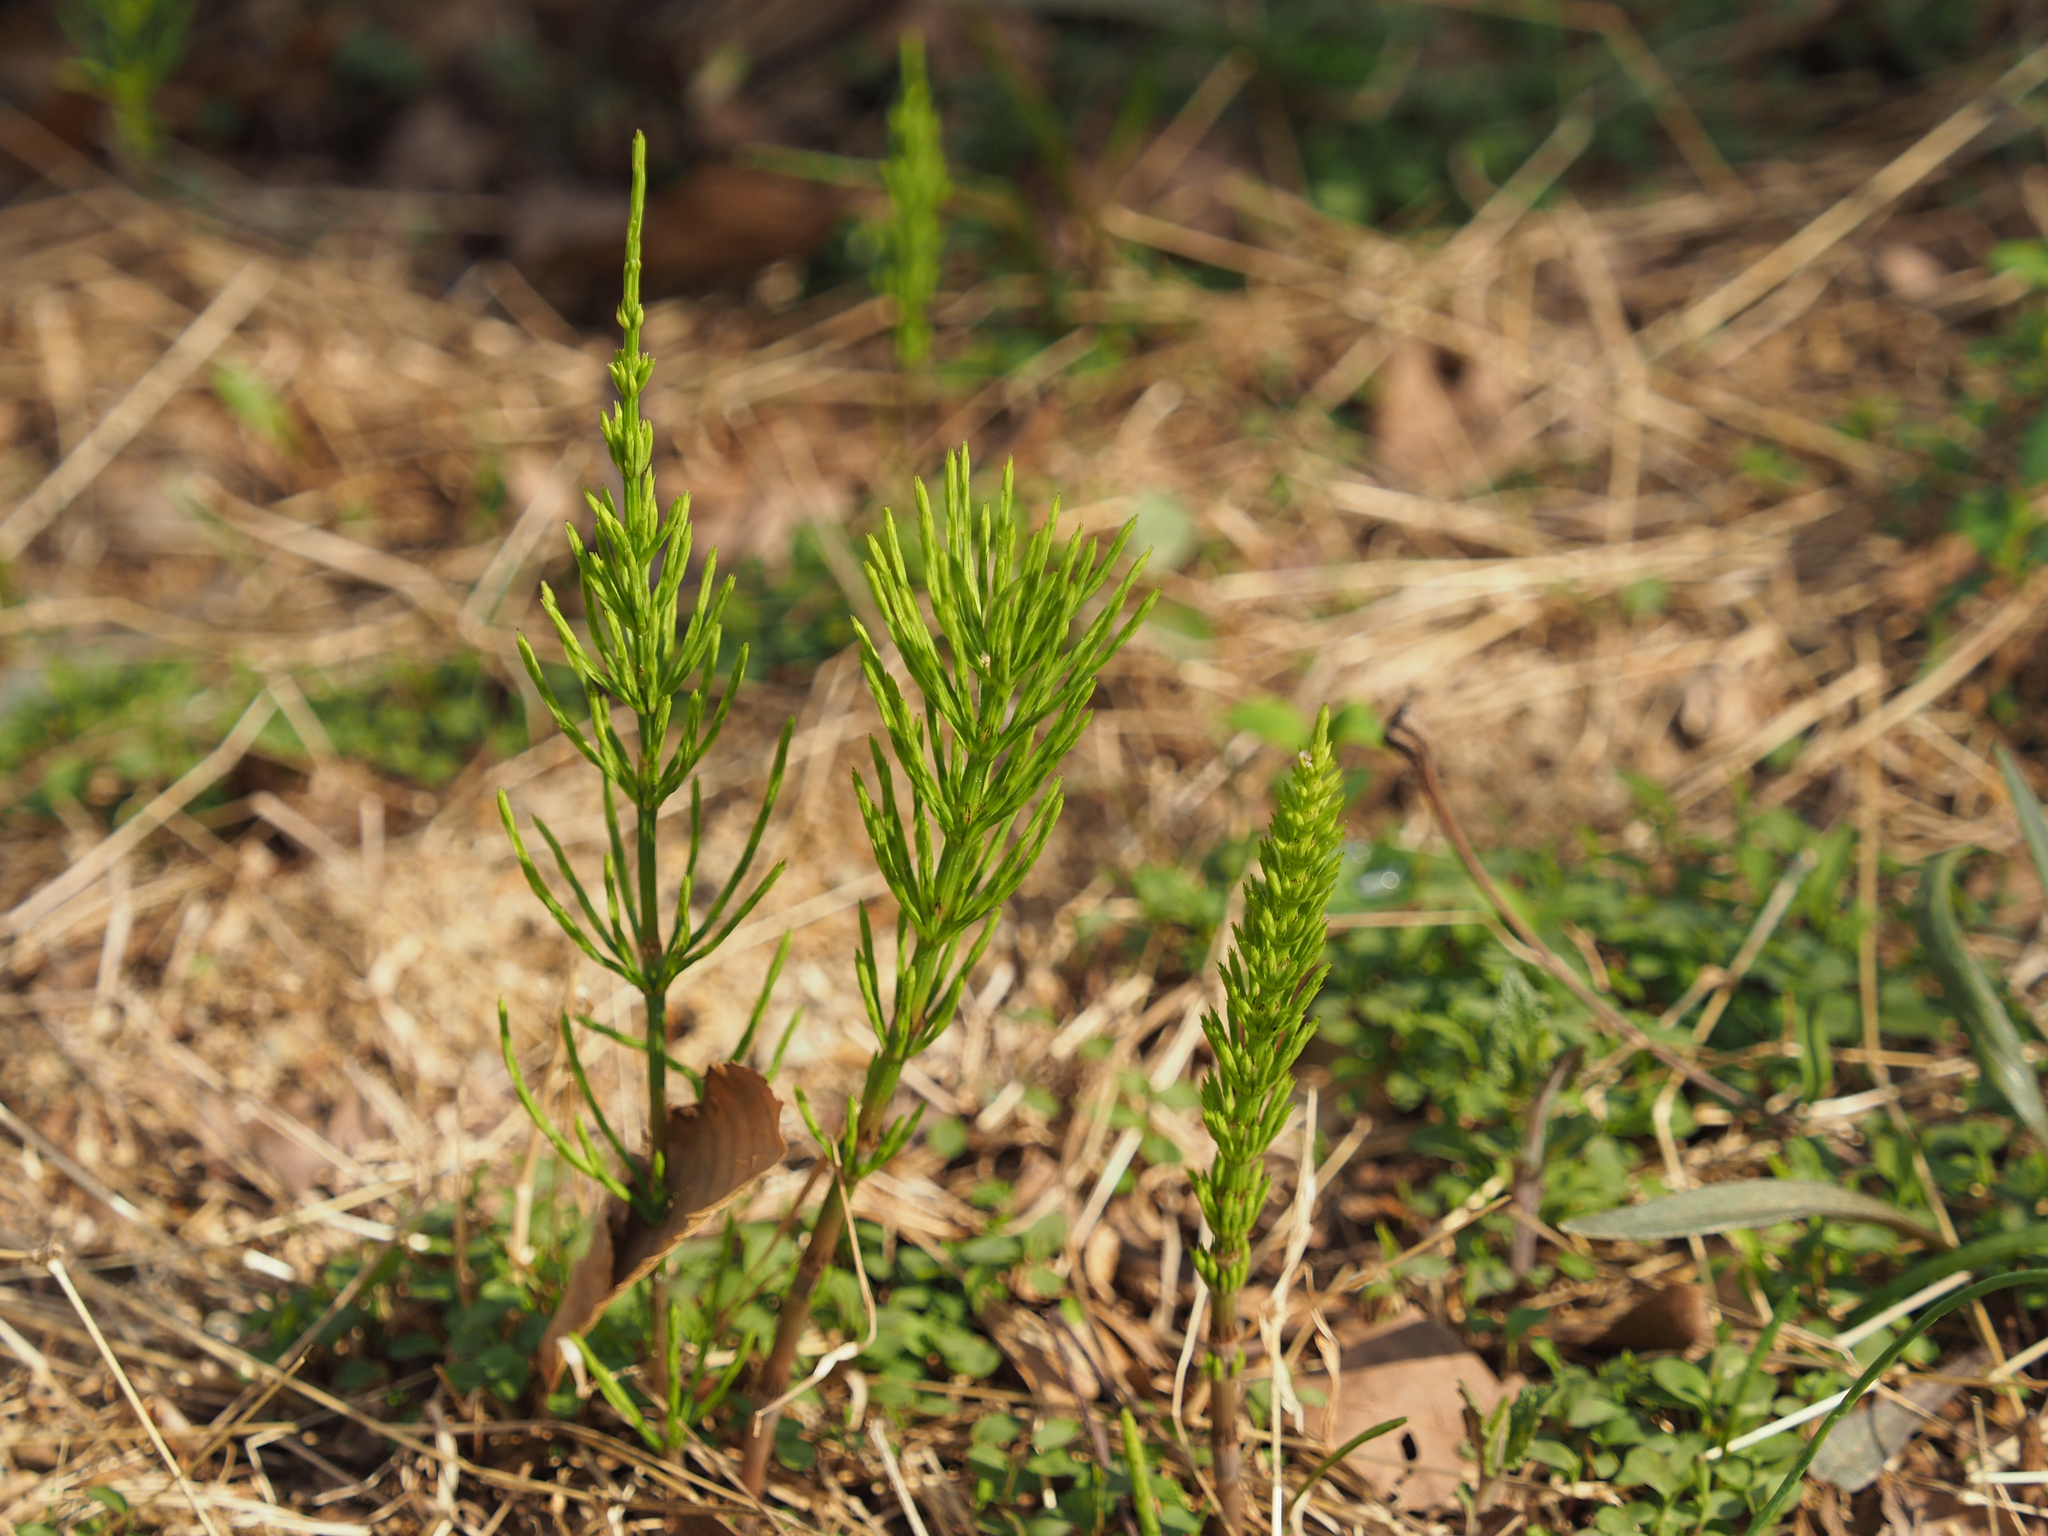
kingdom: Plantae
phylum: Tracheophyta
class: Polypodiopsida
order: Equisetales
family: Equisetaceae
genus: Equisetum
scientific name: Equisetum arvense
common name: Field horsetail
